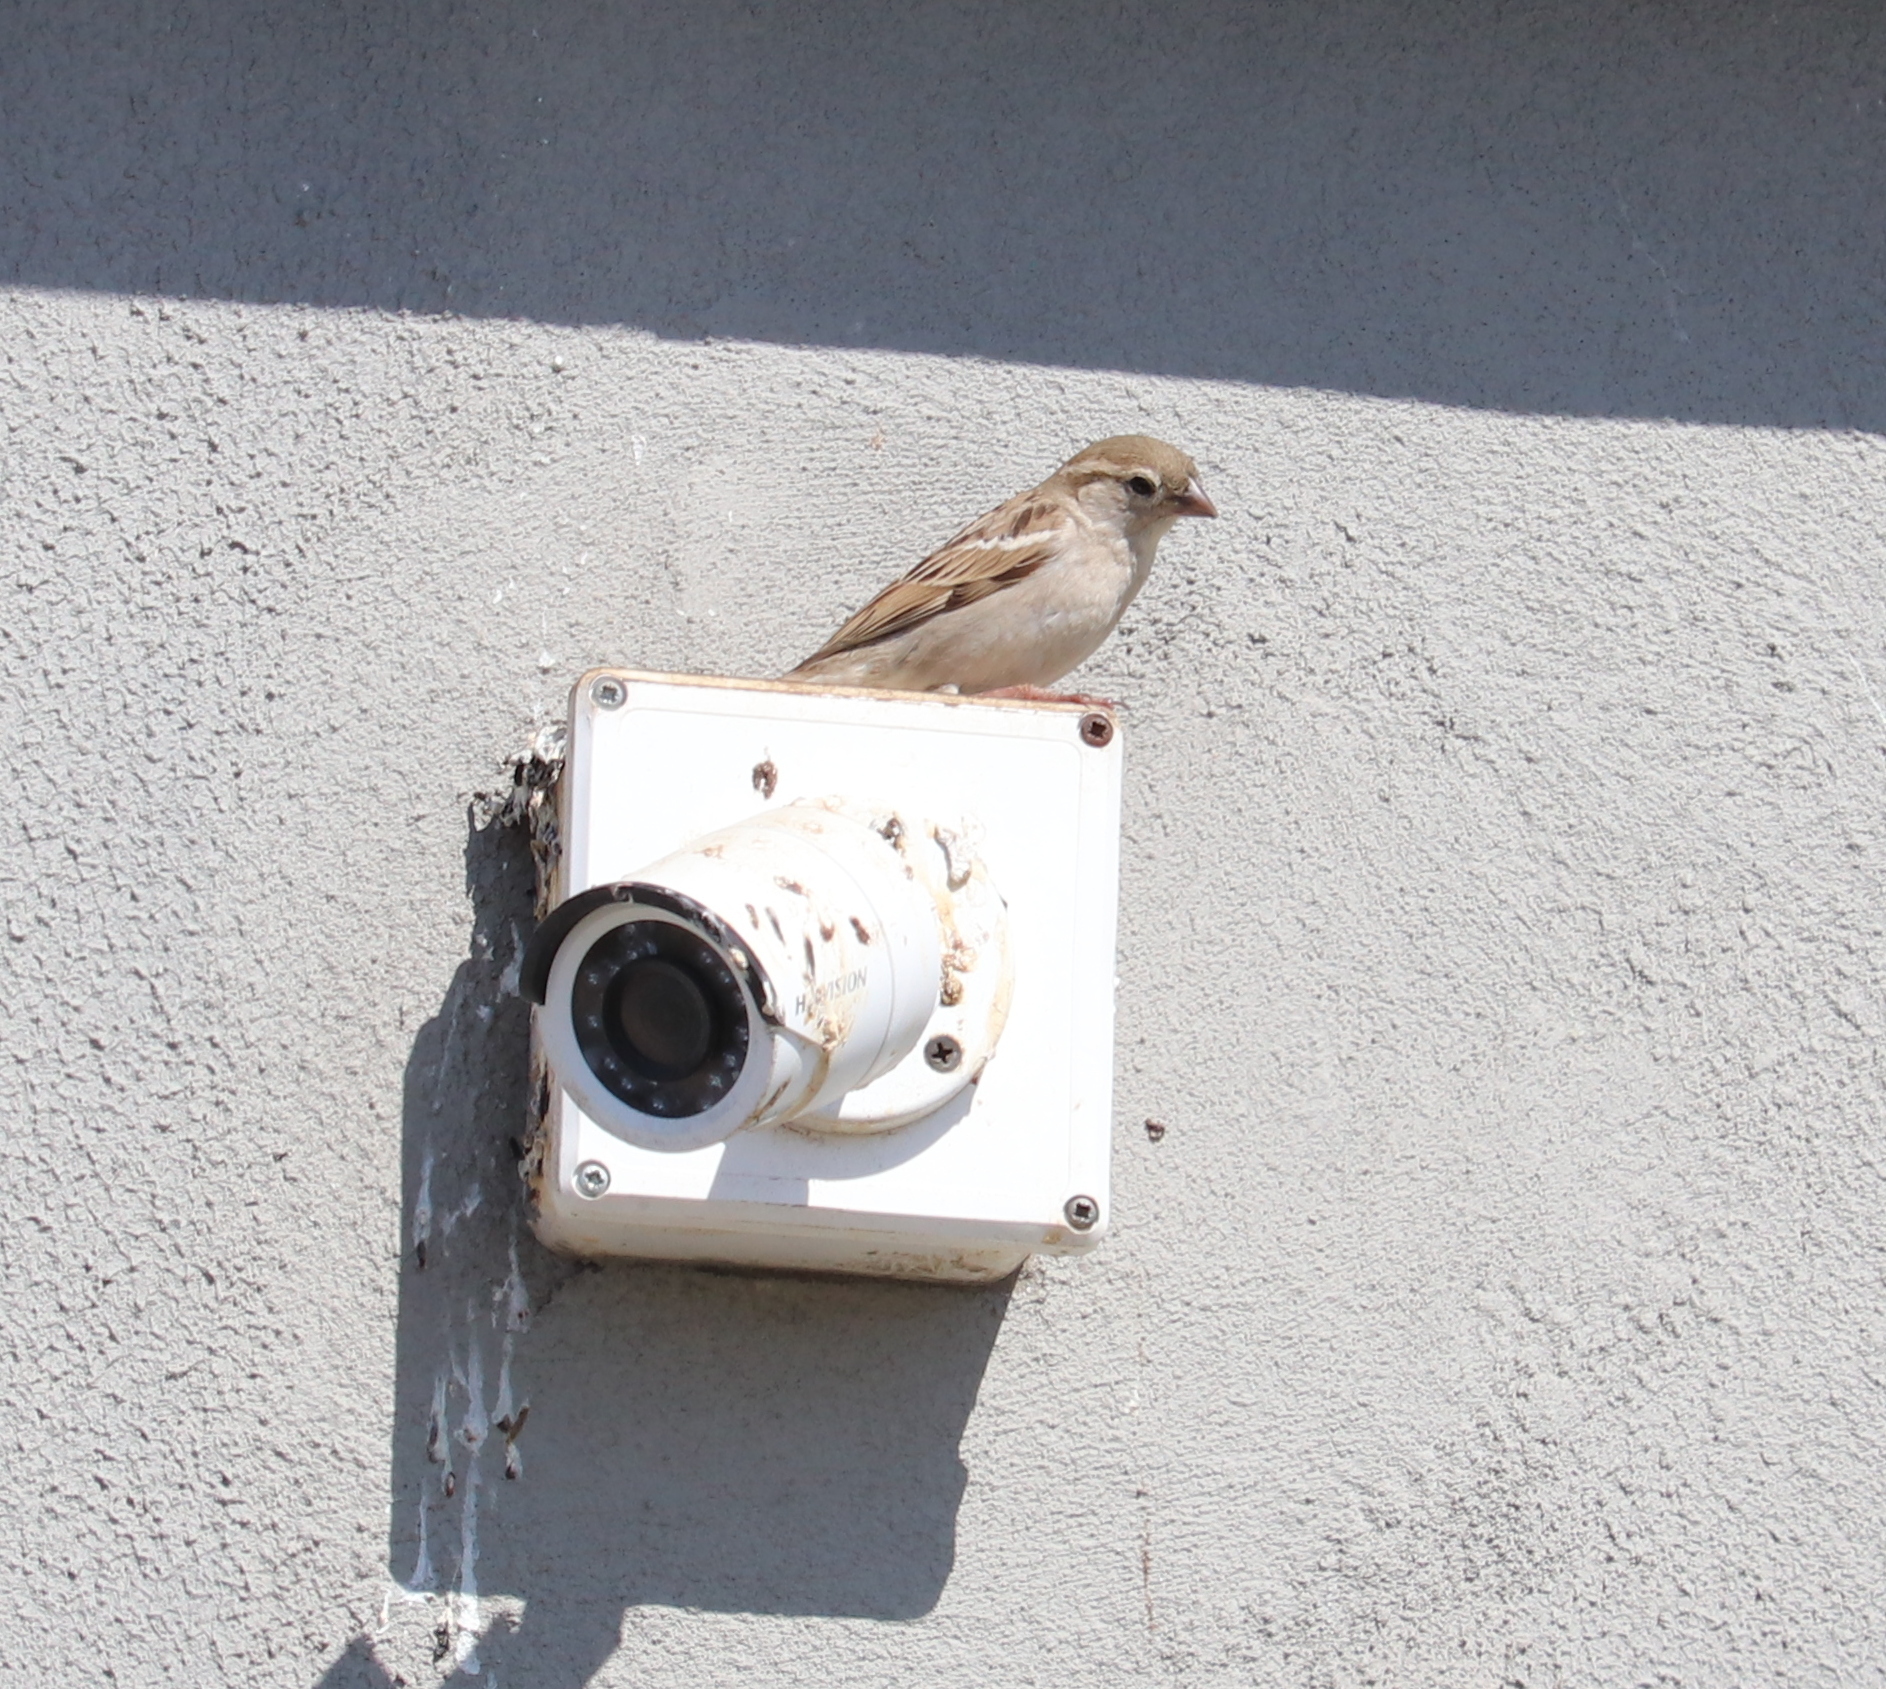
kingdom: Animalia
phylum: Chordata
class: Aves
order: Passeriformes
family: Passeridae
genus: Passer
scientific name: Passer domesticus
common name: House sparrow
